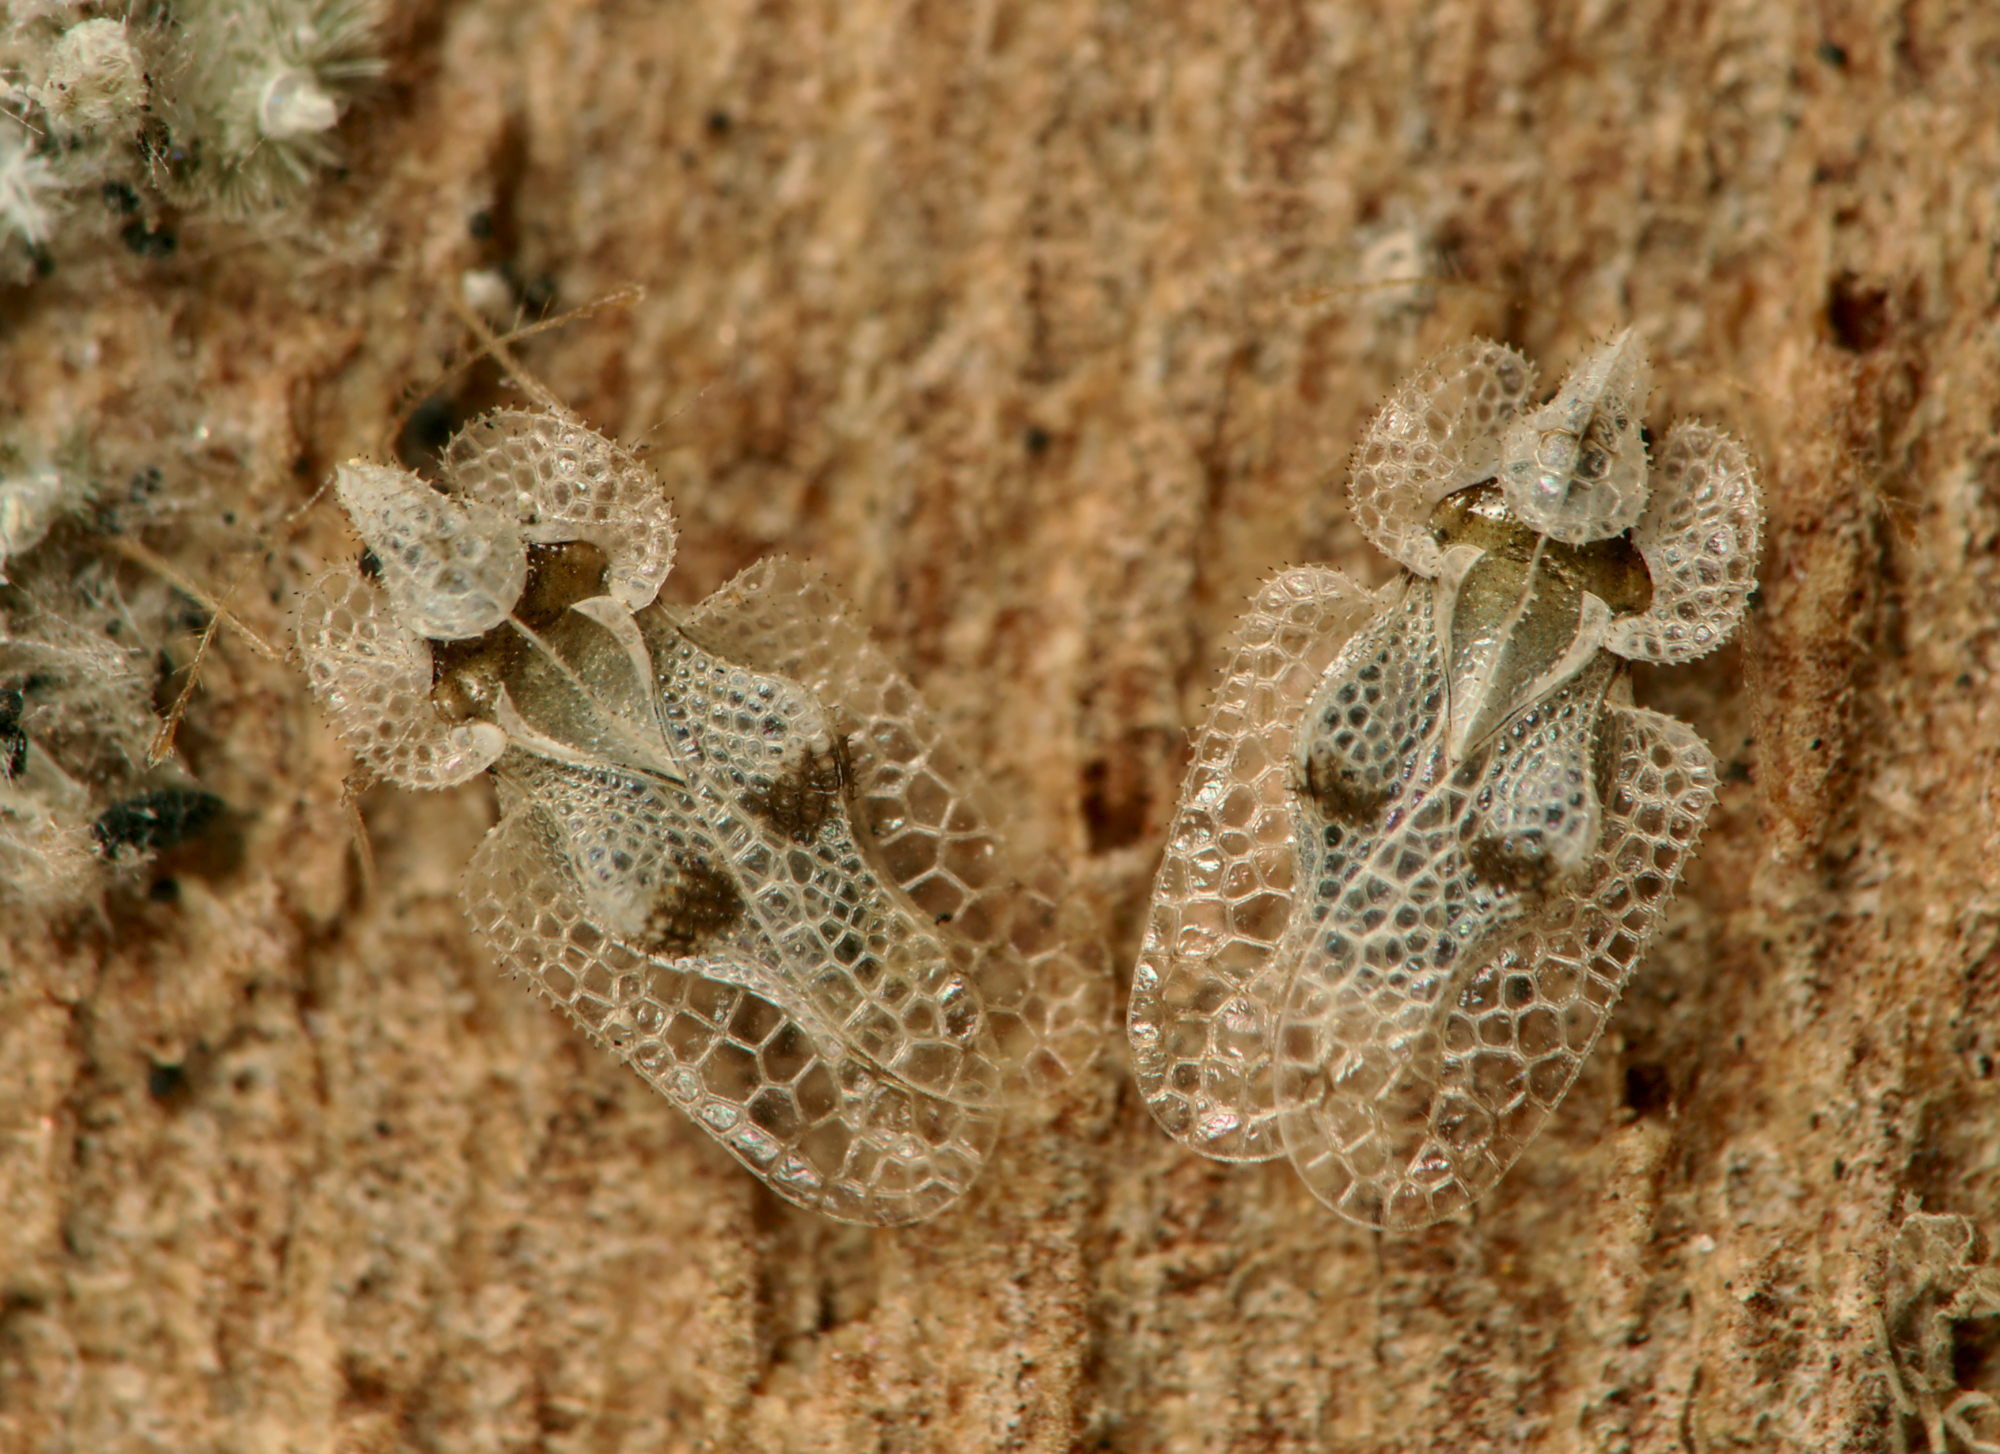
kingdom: Animalia
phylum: Arthropoda
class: Insecta
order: Hemiptera
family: Tingidae
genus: Corythucha
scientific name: Corythucha ciliata
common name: Sycamore lace bug
